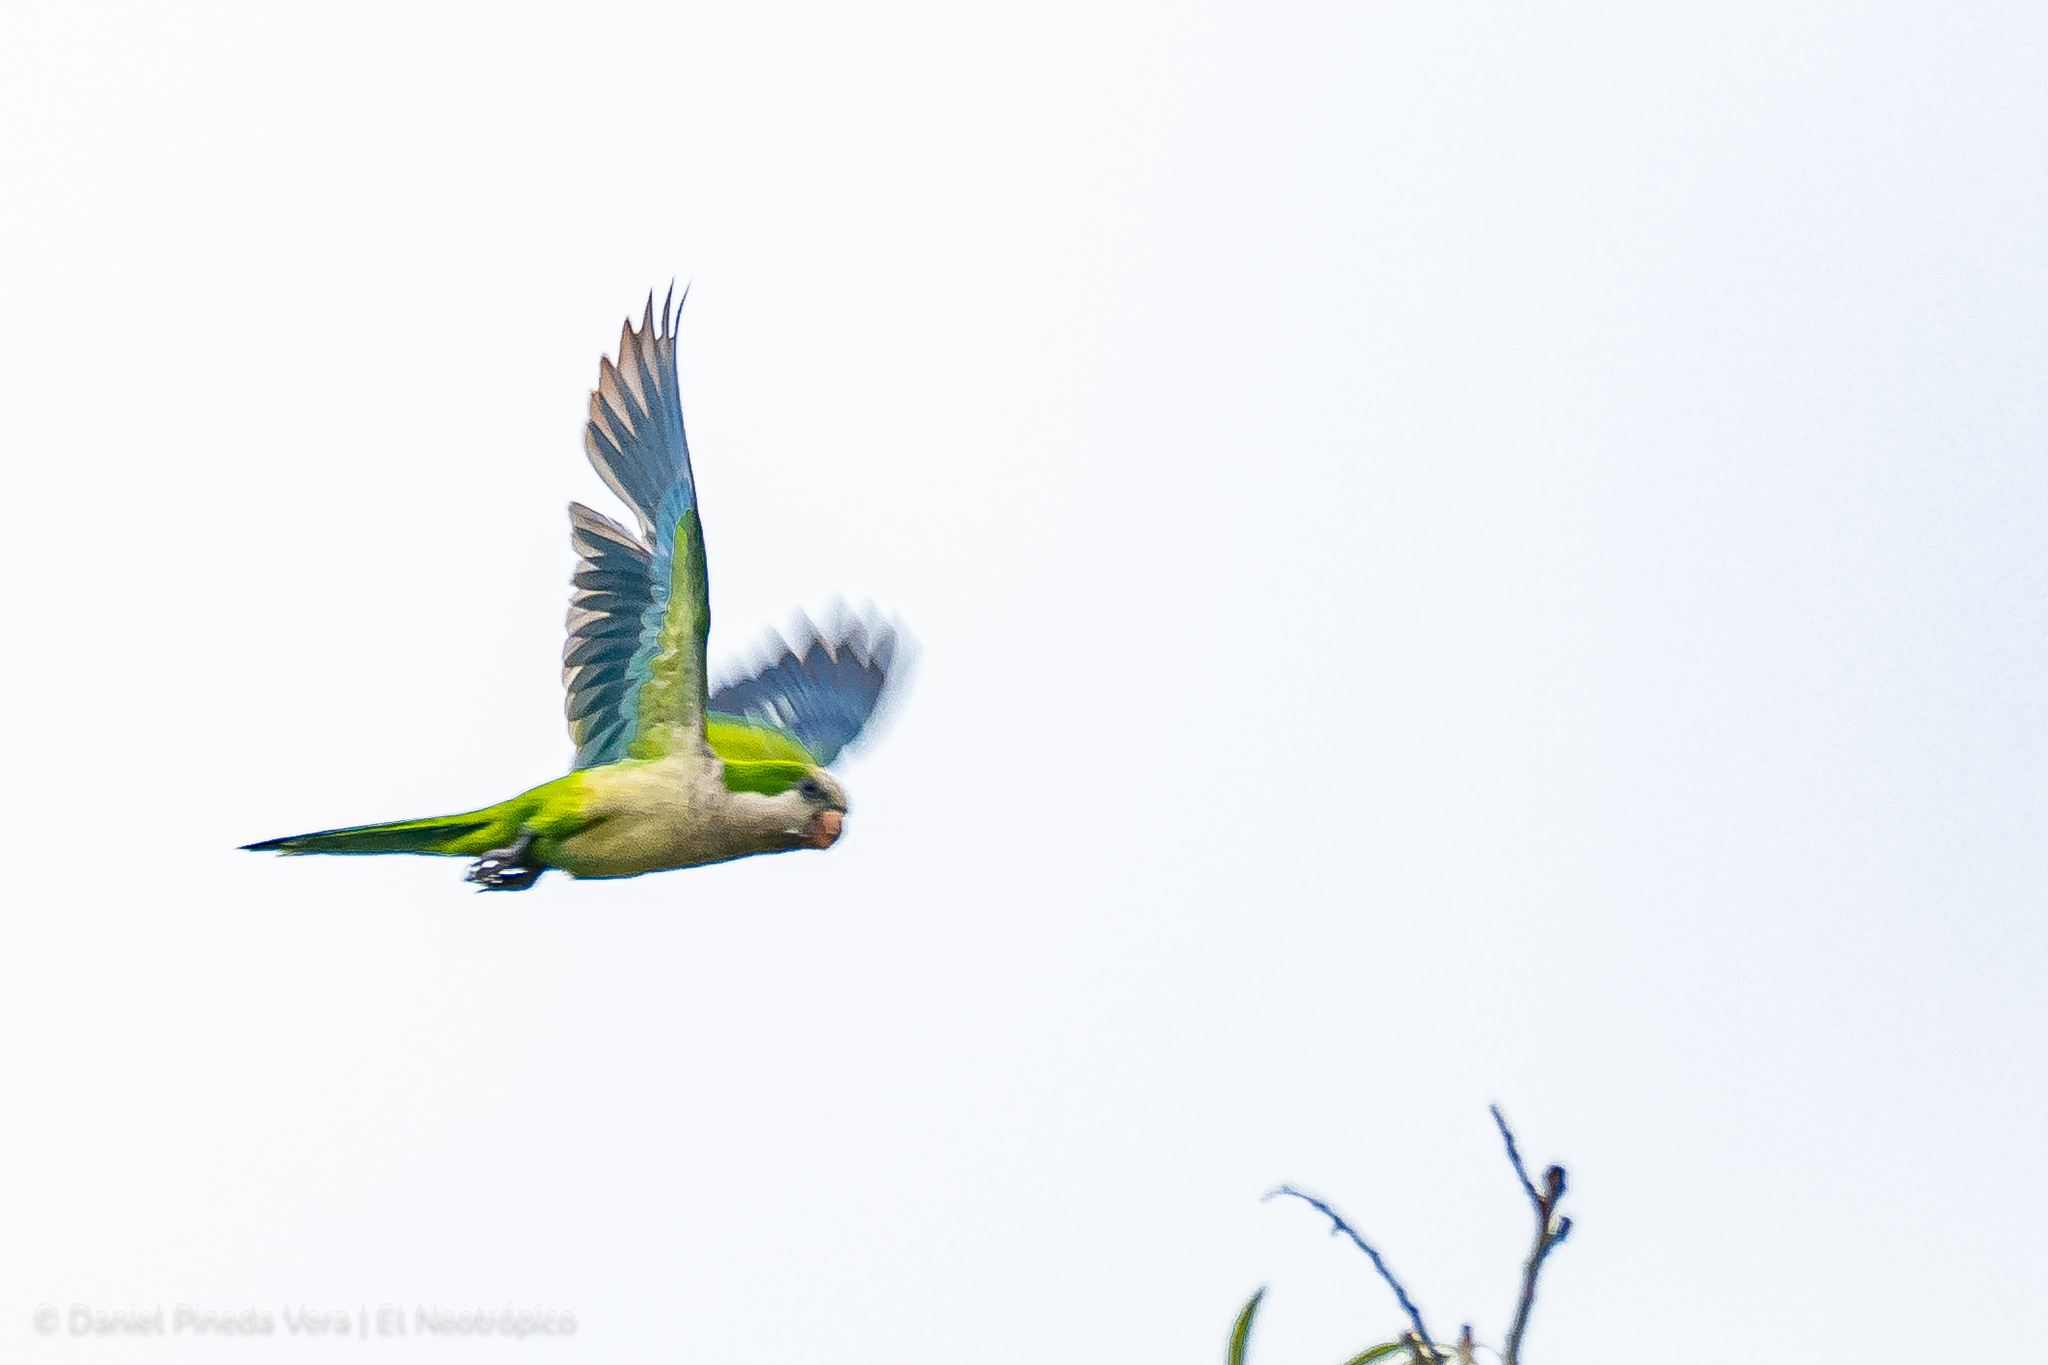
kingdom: Animalia
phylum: Chordata
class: Aves
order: Psittaciformes
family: Psittacidae
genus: Myiopsitta
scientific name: Myiopsitta monachus
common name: Monk parakeet
